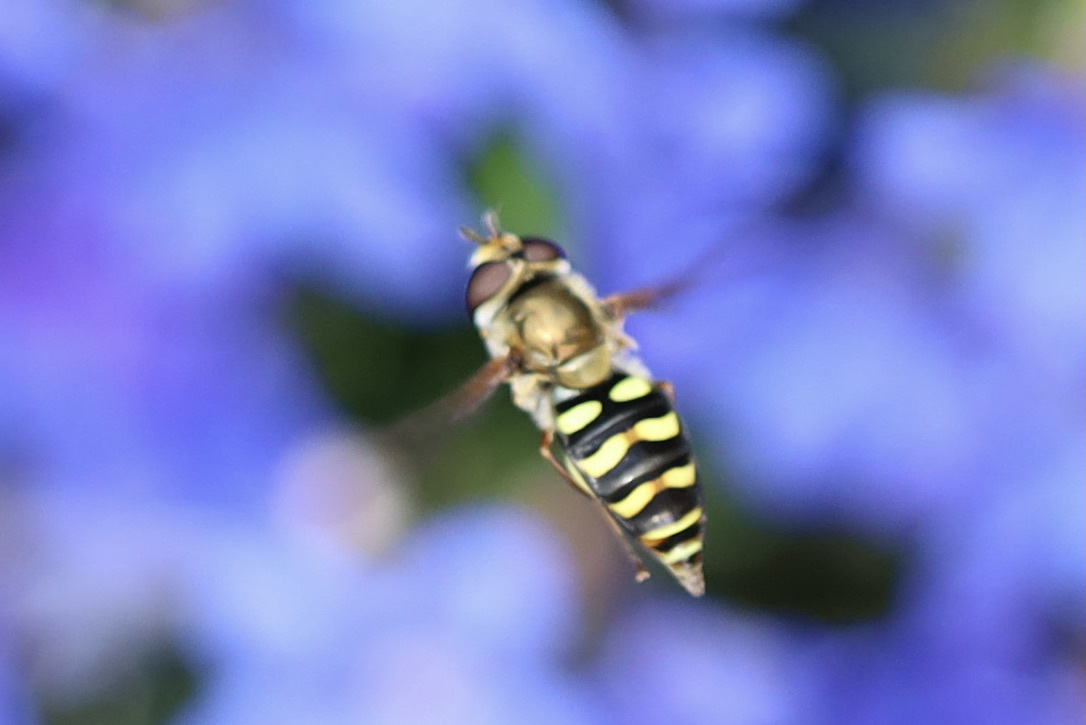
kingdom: Animalia
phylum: Arthropoda
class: Insecta
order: Diptera
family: Syrphidae
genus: Eupeodes
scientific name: Eupeodes fumipennis
